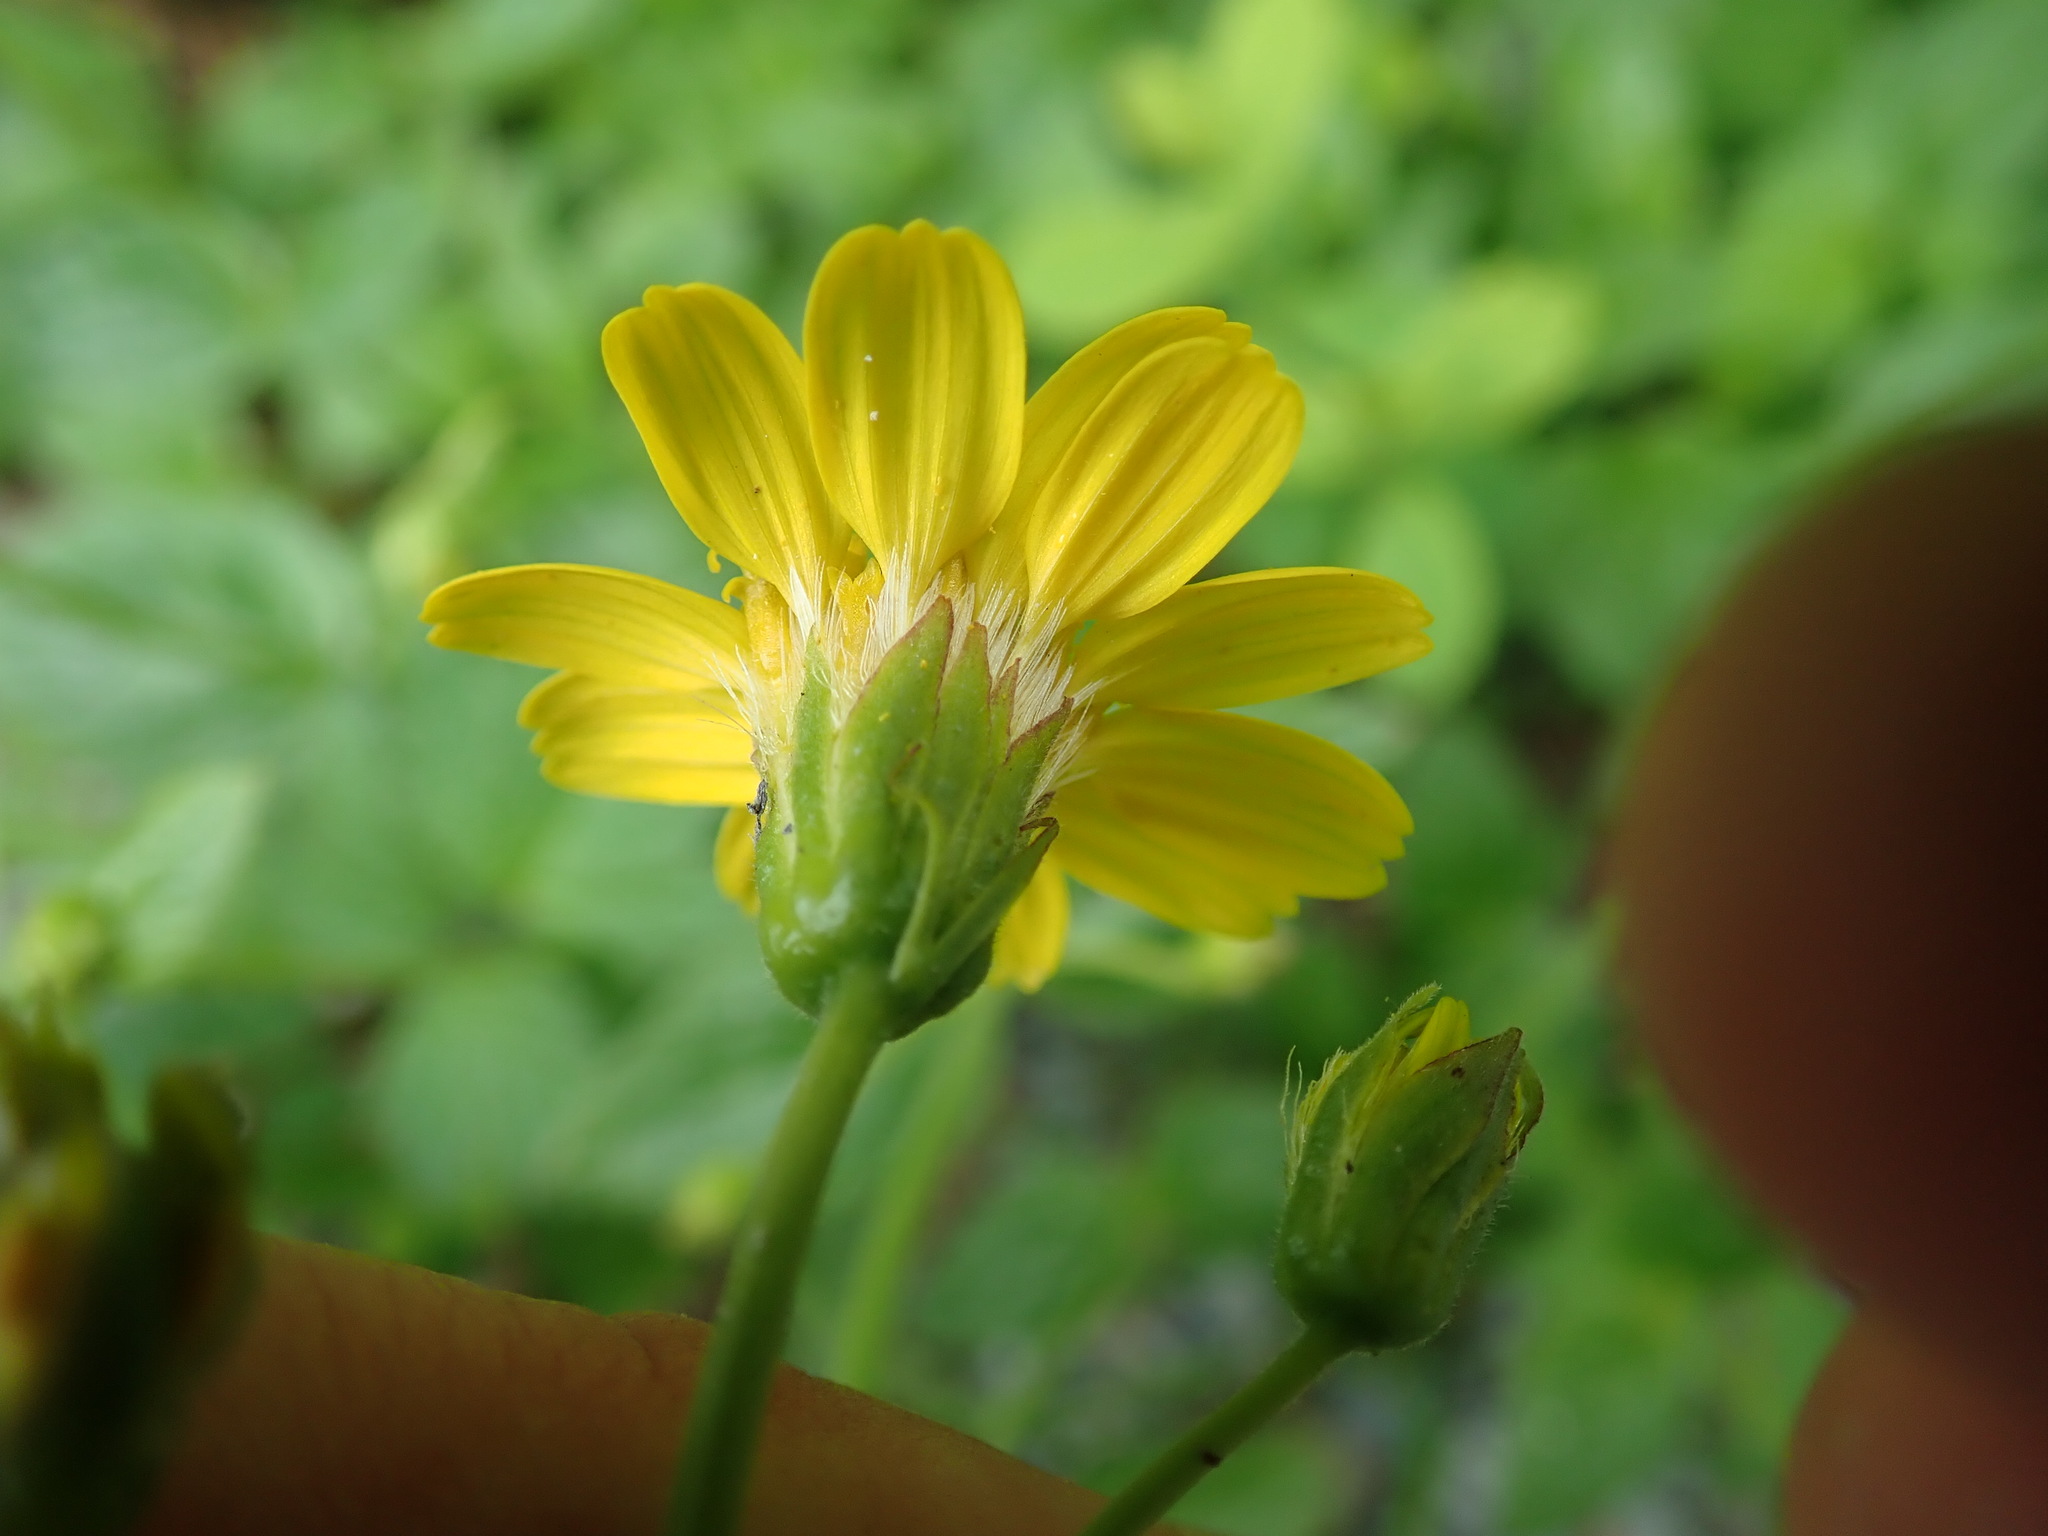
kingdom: Plantae
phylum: Tracheophyta
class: Magnoliopsida
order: Asterales
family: Asteraceae
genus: Arnica
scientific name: Arnica latifolia
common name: Arnica
